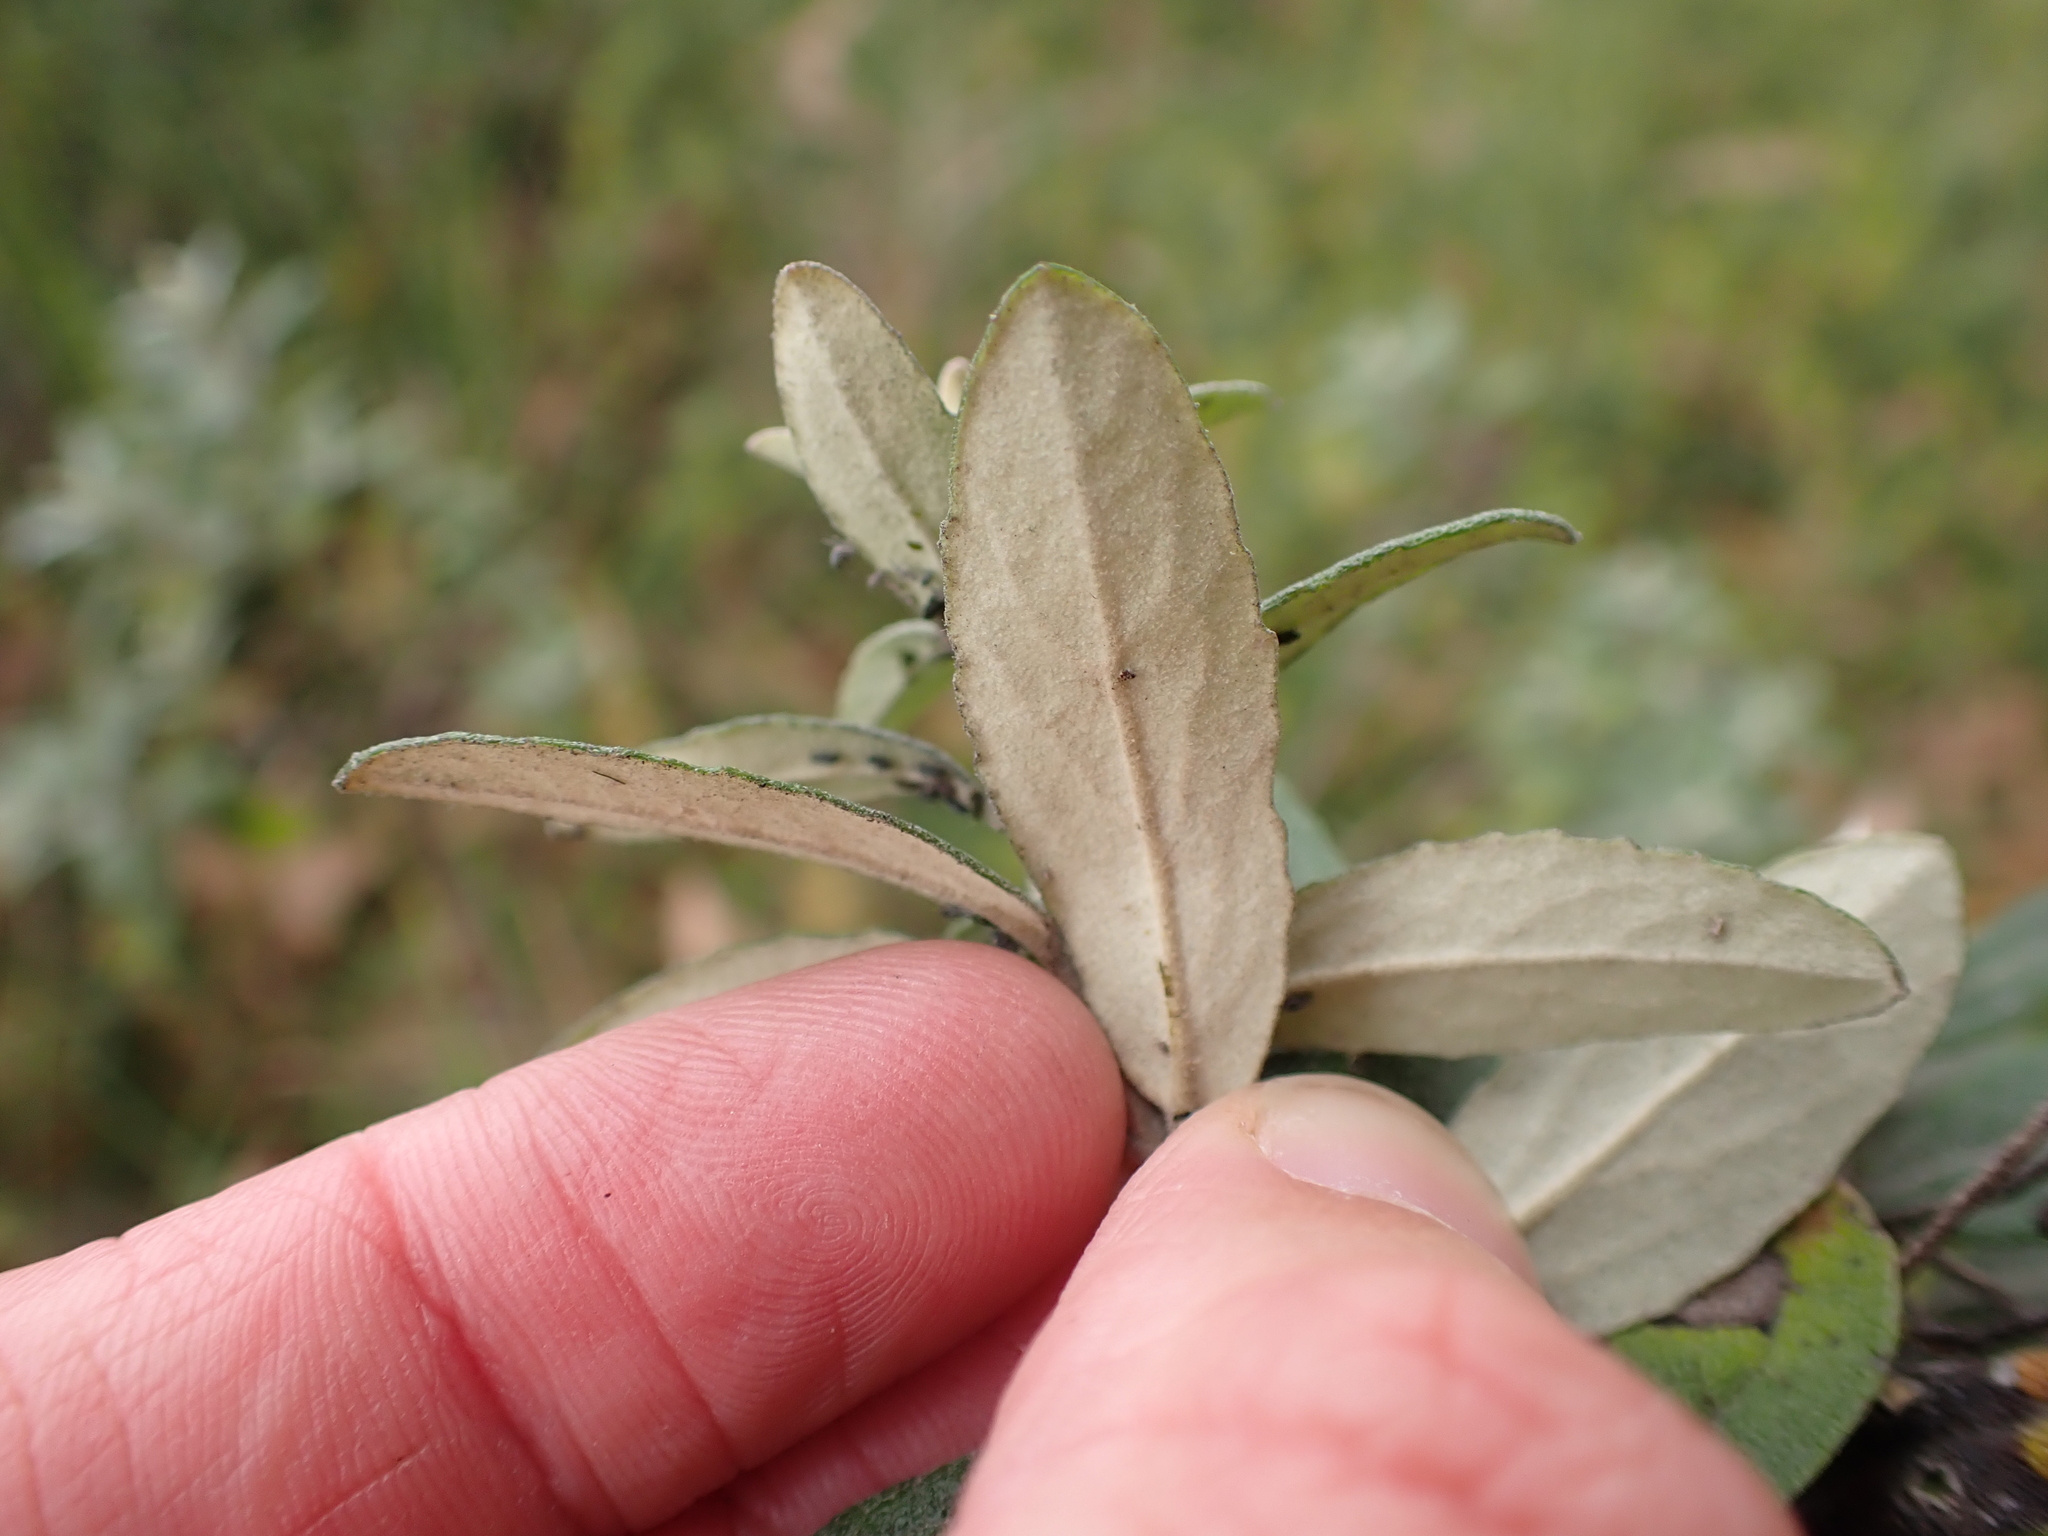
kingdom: Plantae
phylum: Tracheophyta
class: Magnoliopsida
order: Asterales
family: Asteraceae
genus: Olearia
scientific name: Olearia phlogopappa
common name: Alpine daisybush
